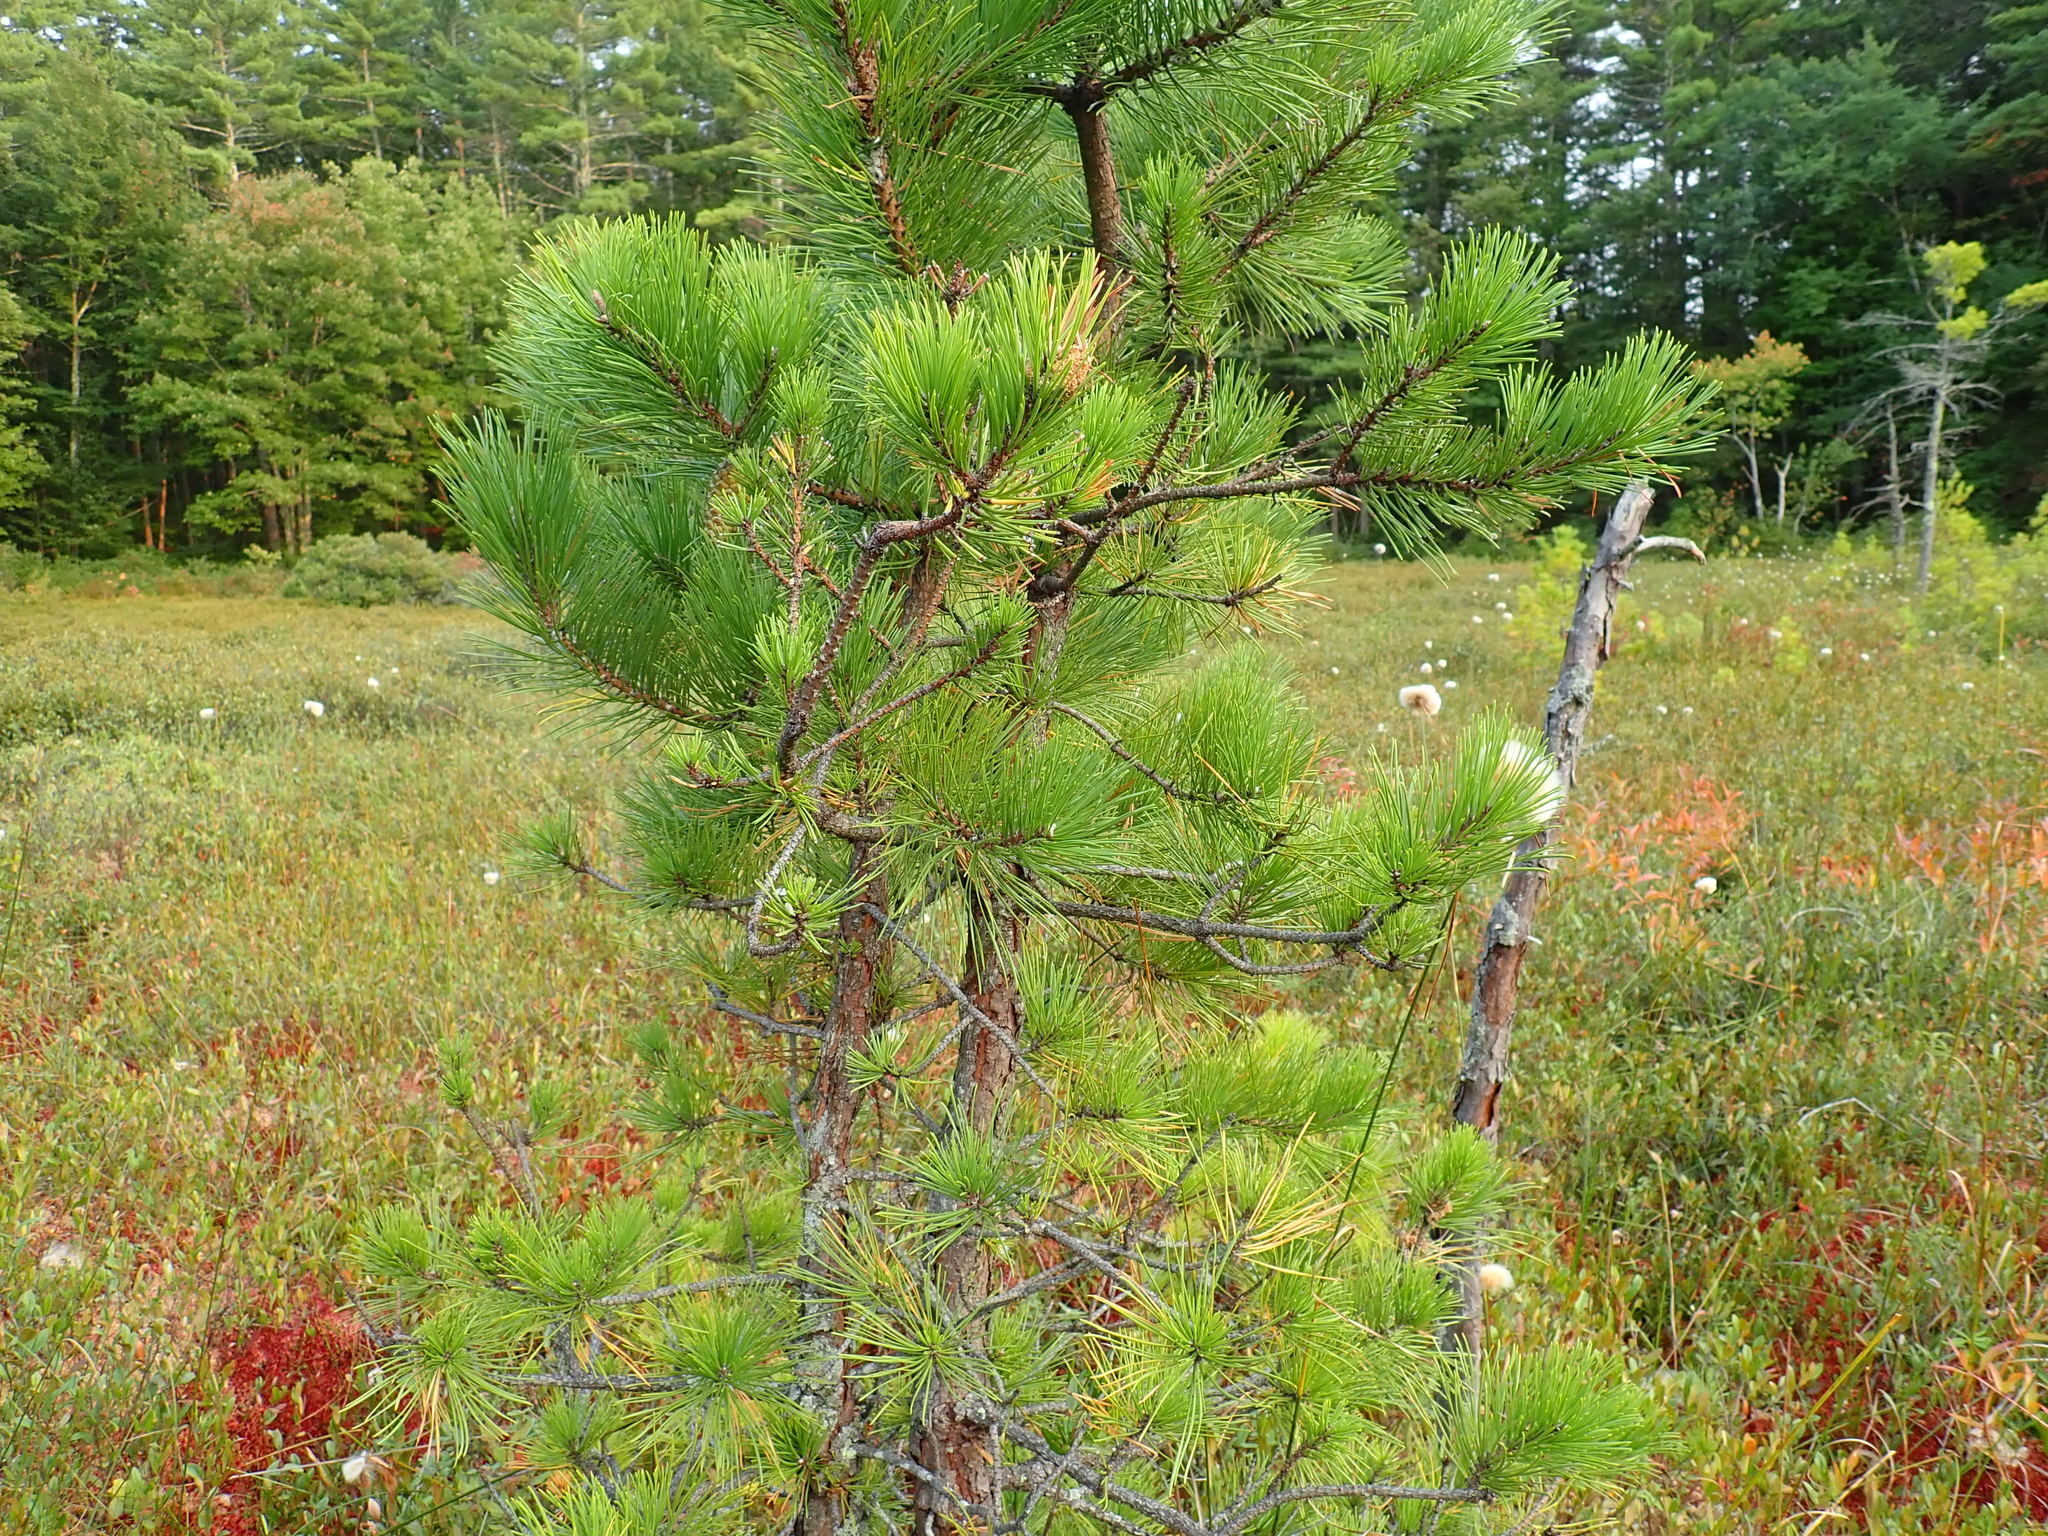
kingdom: Plantae
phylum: Tracheophyta
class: Pinopsida
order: Pinales
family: Pinaceae
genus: Pinus
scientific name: Pinus rigida
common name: Pitch pine
